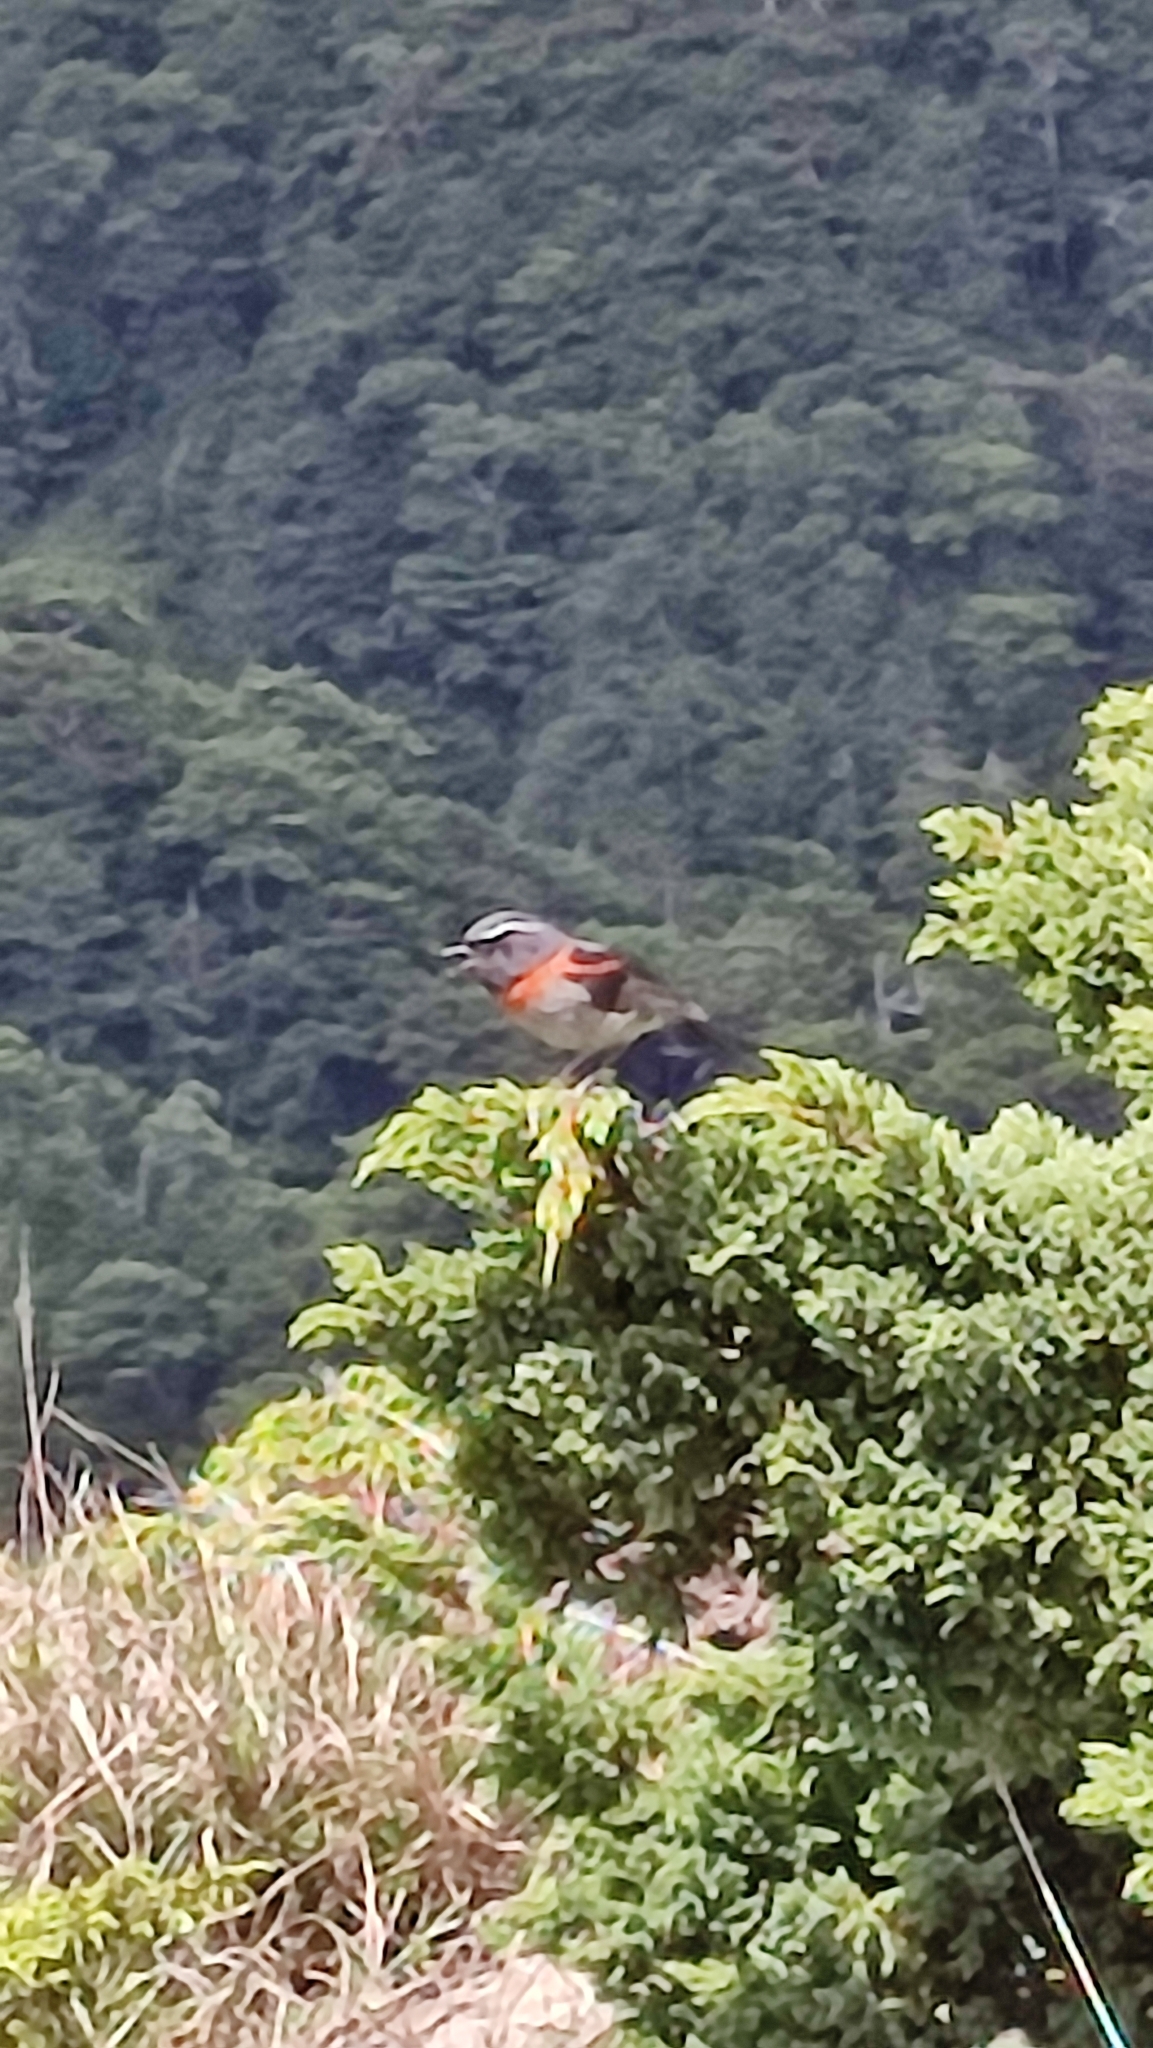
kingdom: Animalia
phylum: Chordata
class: Aves
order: Passeriformes
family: Muscicapidae
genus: Tarsiger
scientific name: Tarsiger johnstoniae
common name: Collared bush robin
